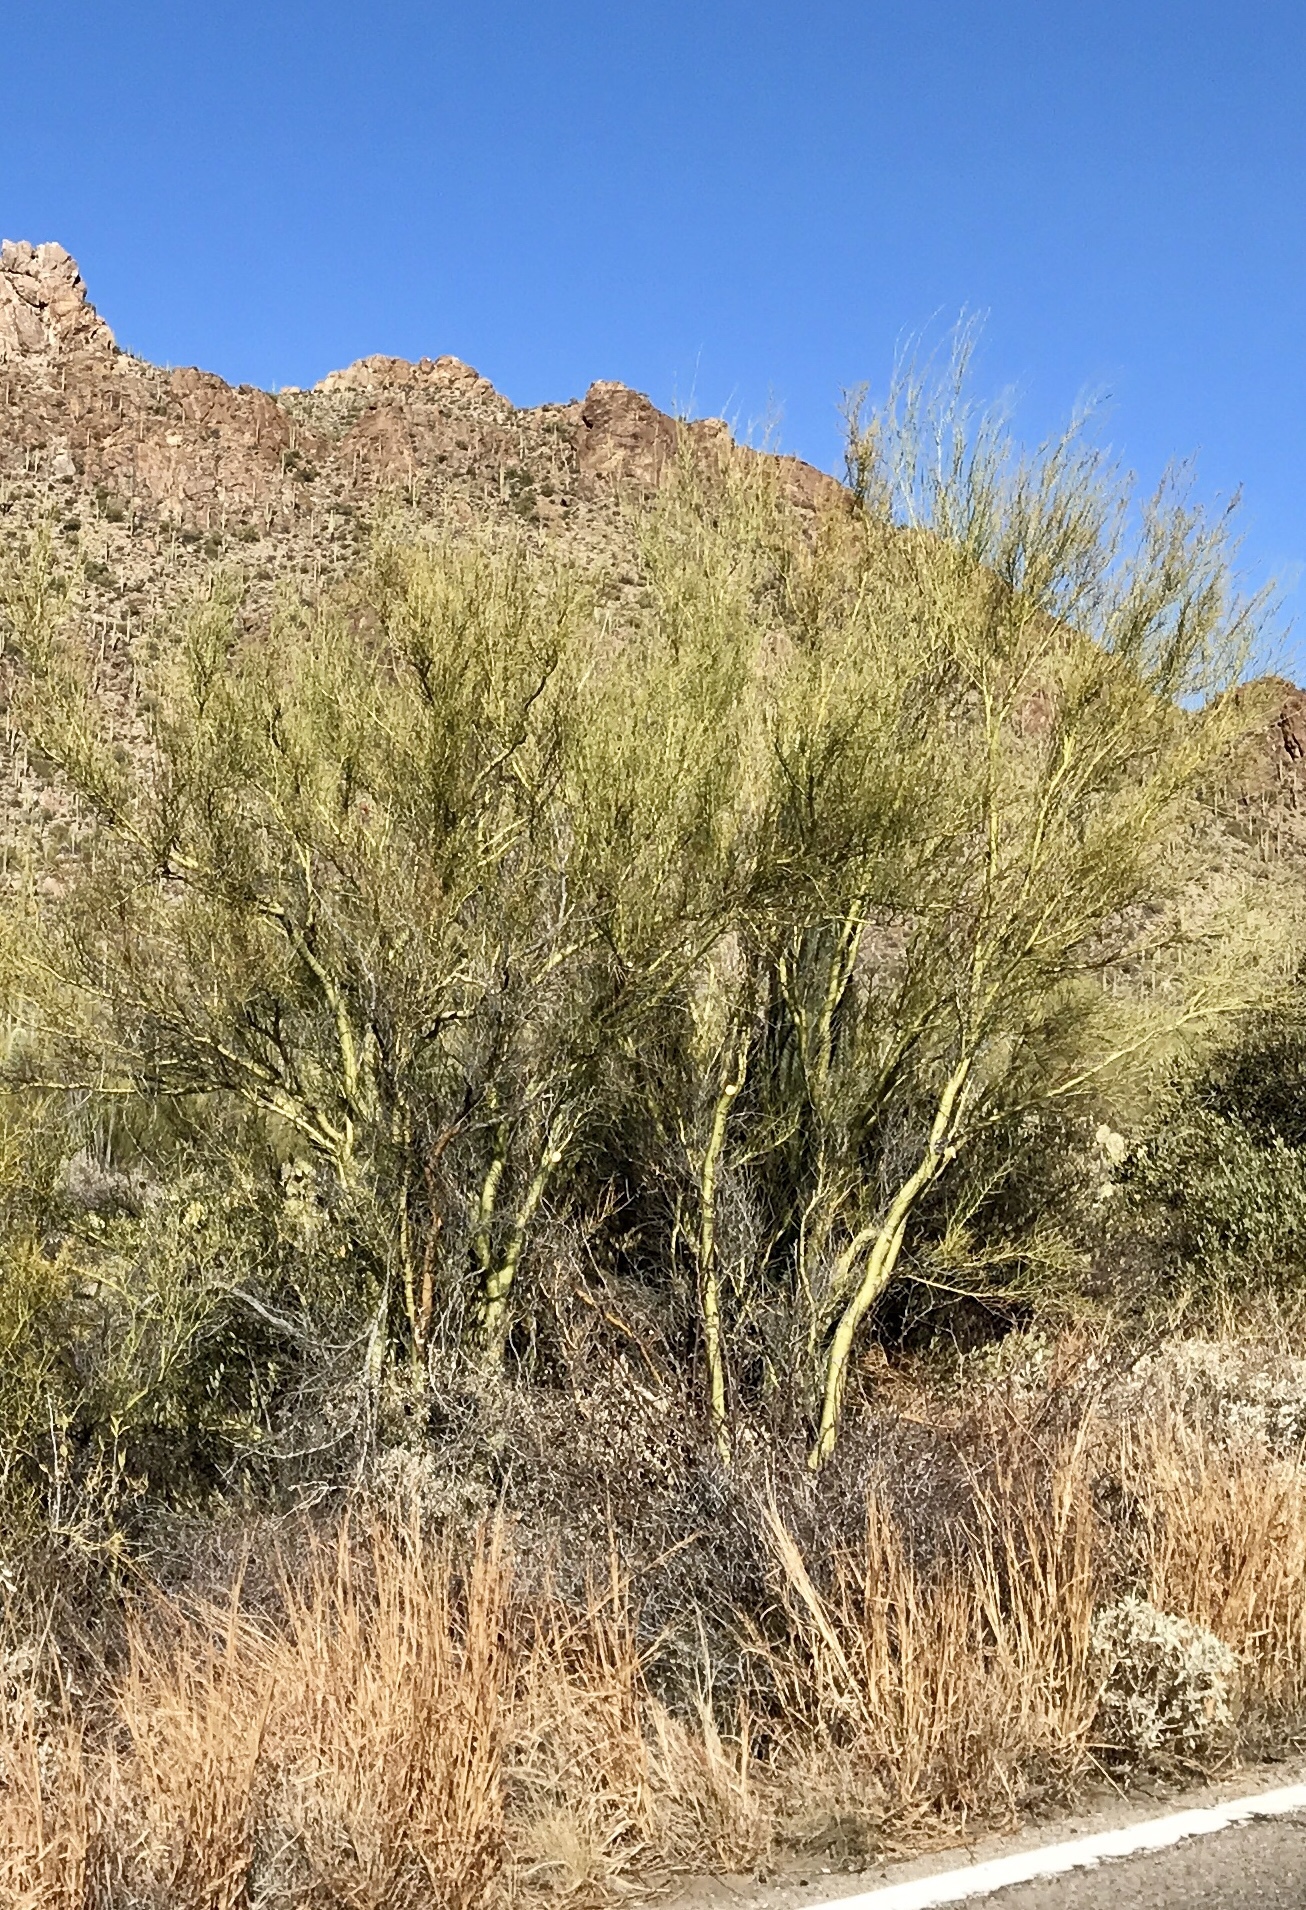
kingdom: Plantae
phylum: Tracheophyta
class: Magnoliopsida
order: Fabales
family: Fabaceae
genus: Parkinsonia
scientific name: Parkinsonia microphylla
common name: Yellow paloverde
